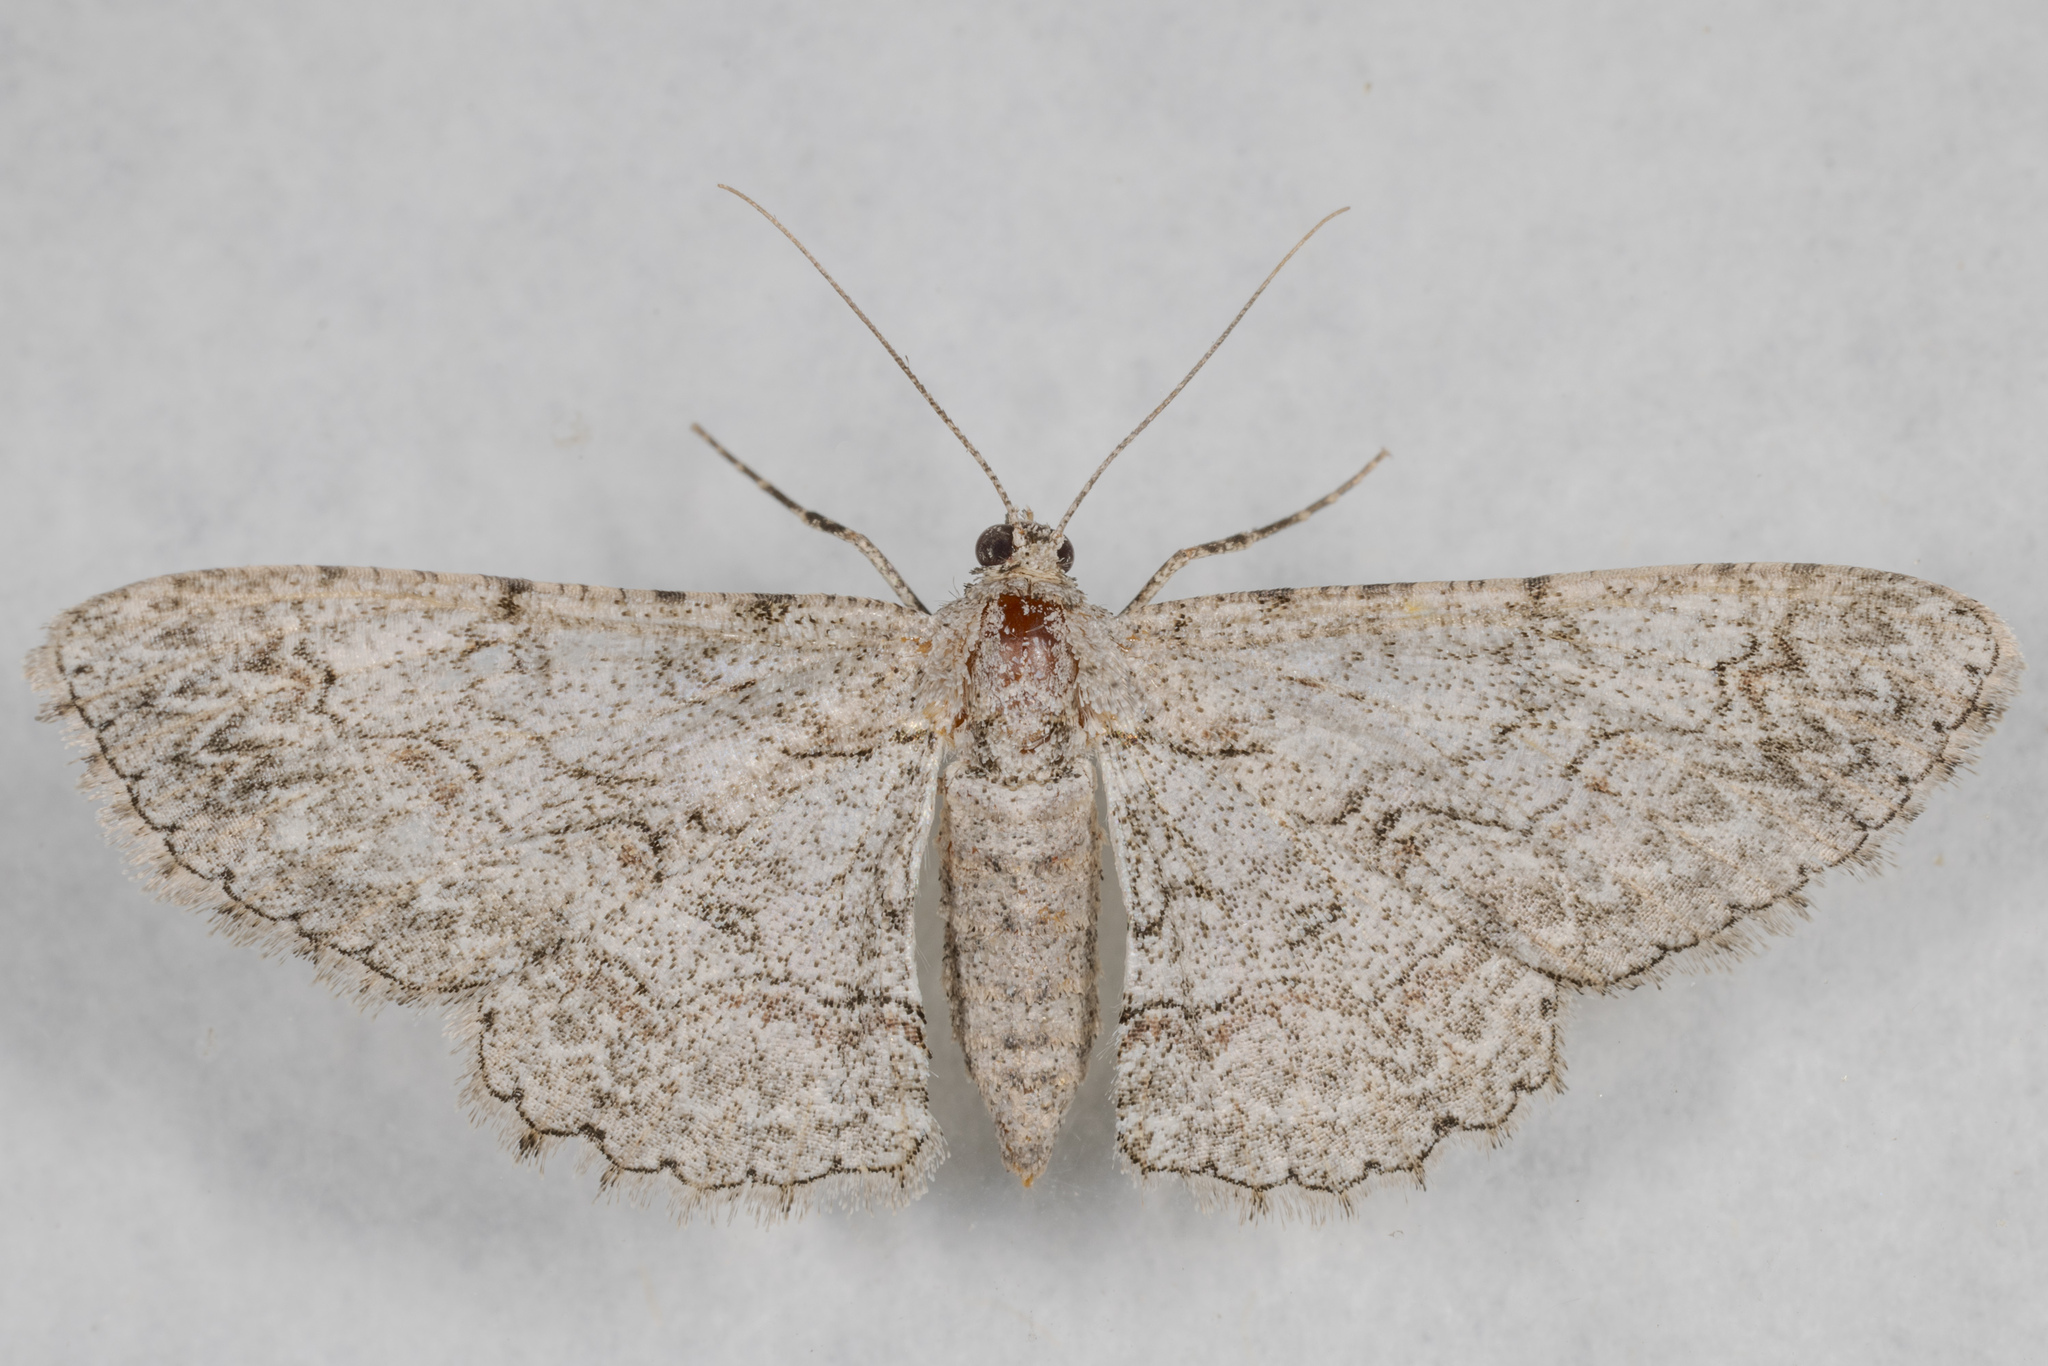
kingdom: Animalia
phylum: Arthropoda
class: Insecta
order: Lepidoptera
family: Geometridae
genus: Iridopsis
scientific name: Iridopsis defectaria
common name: Brown-shaded gray
